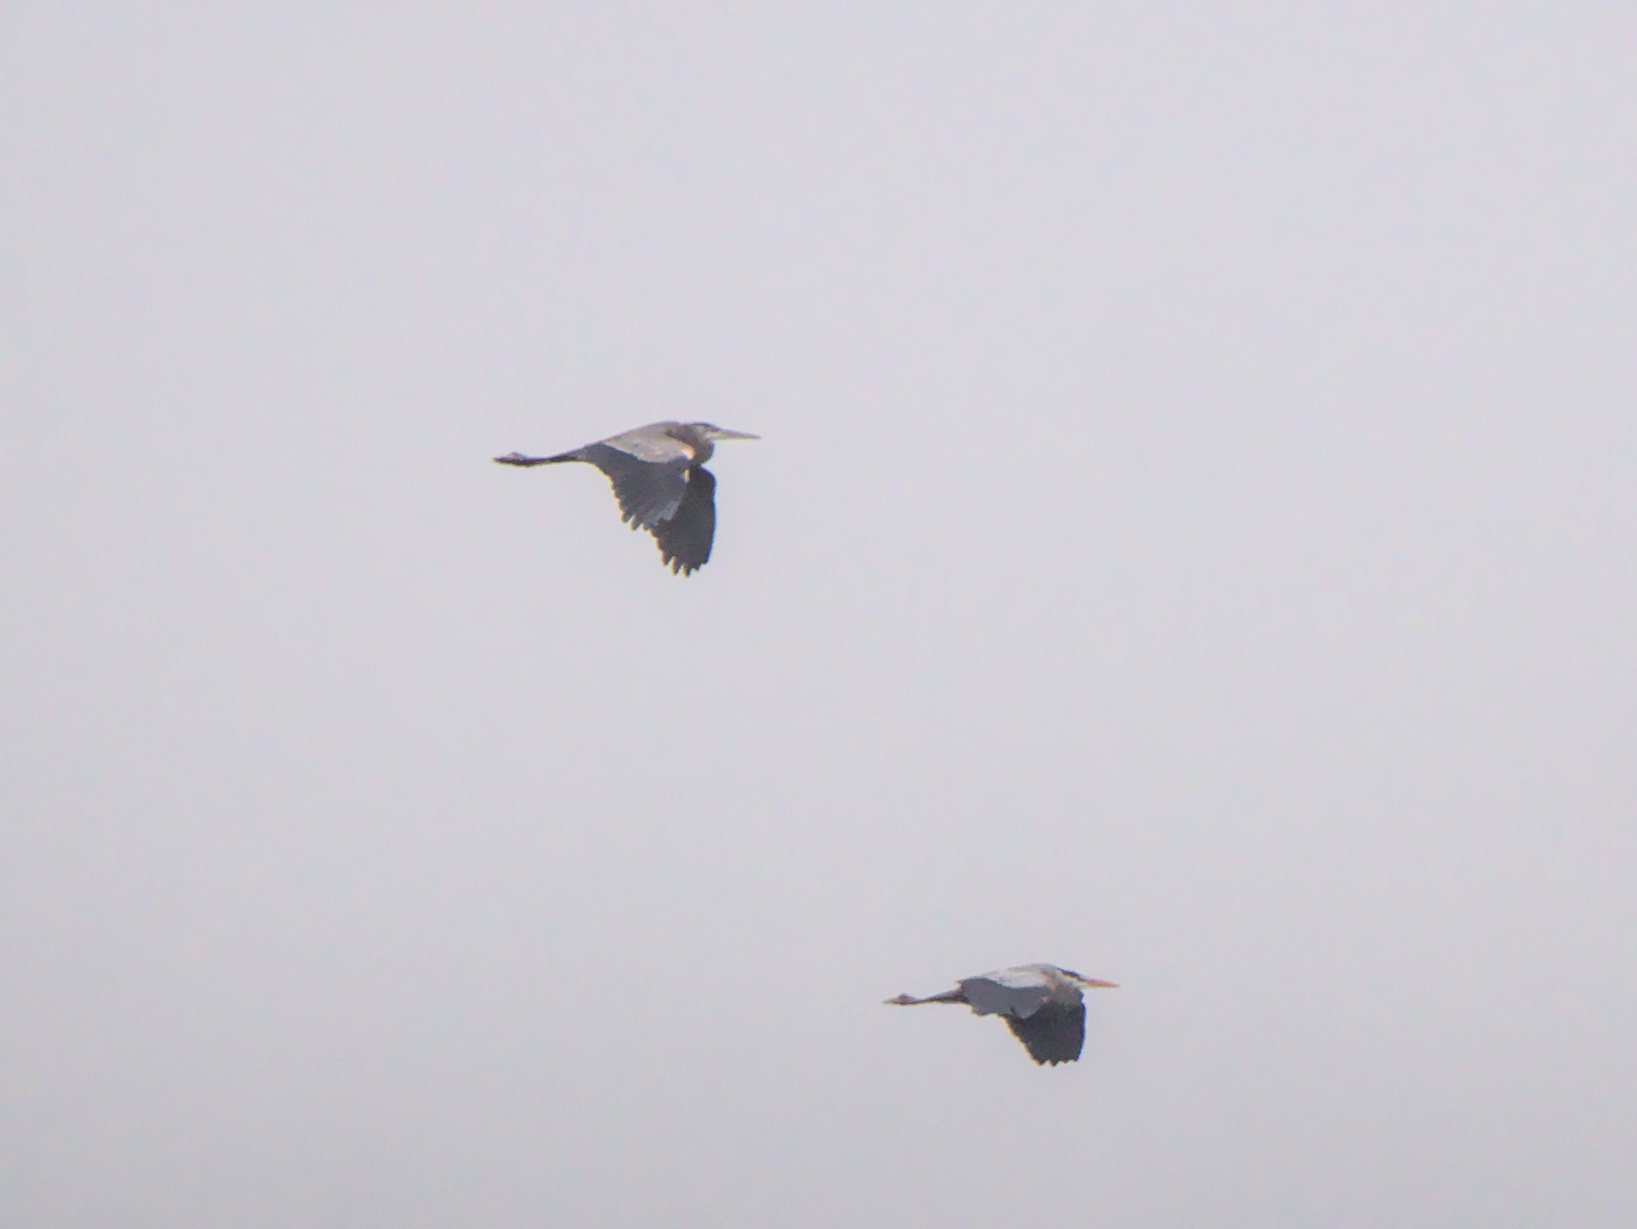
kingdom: Animalia
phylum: Chordata
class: Aves
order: Pelecaniformes
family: Ardeidae
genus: Ardea
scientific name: Ardea herodias
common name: Great blue heron
